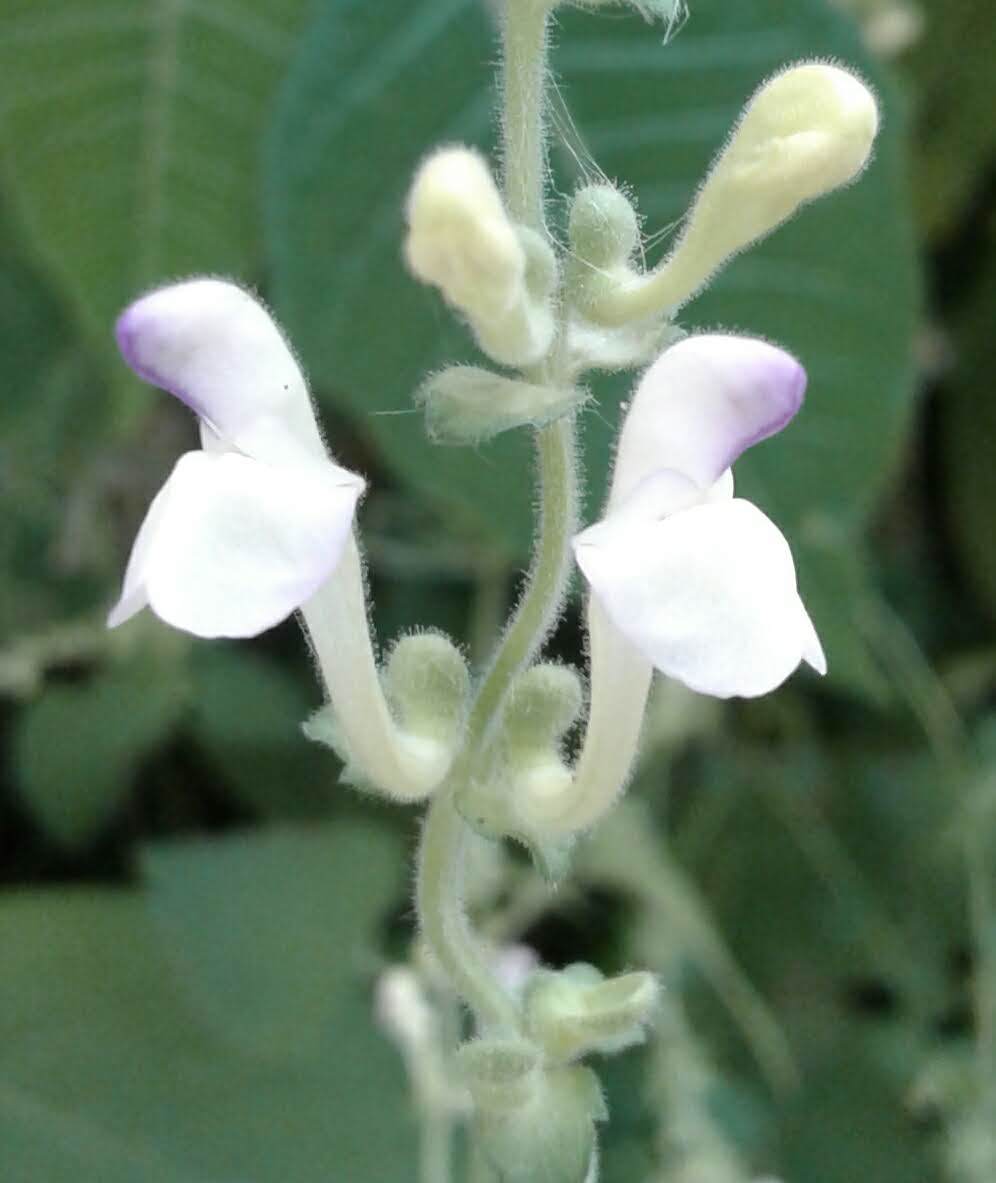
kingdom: Plantae
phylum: Tracheophyta
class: Magnoliopsida
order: Lamiales
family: Lamiaceae
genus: Scutellaria
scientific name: Scutellaria repens
